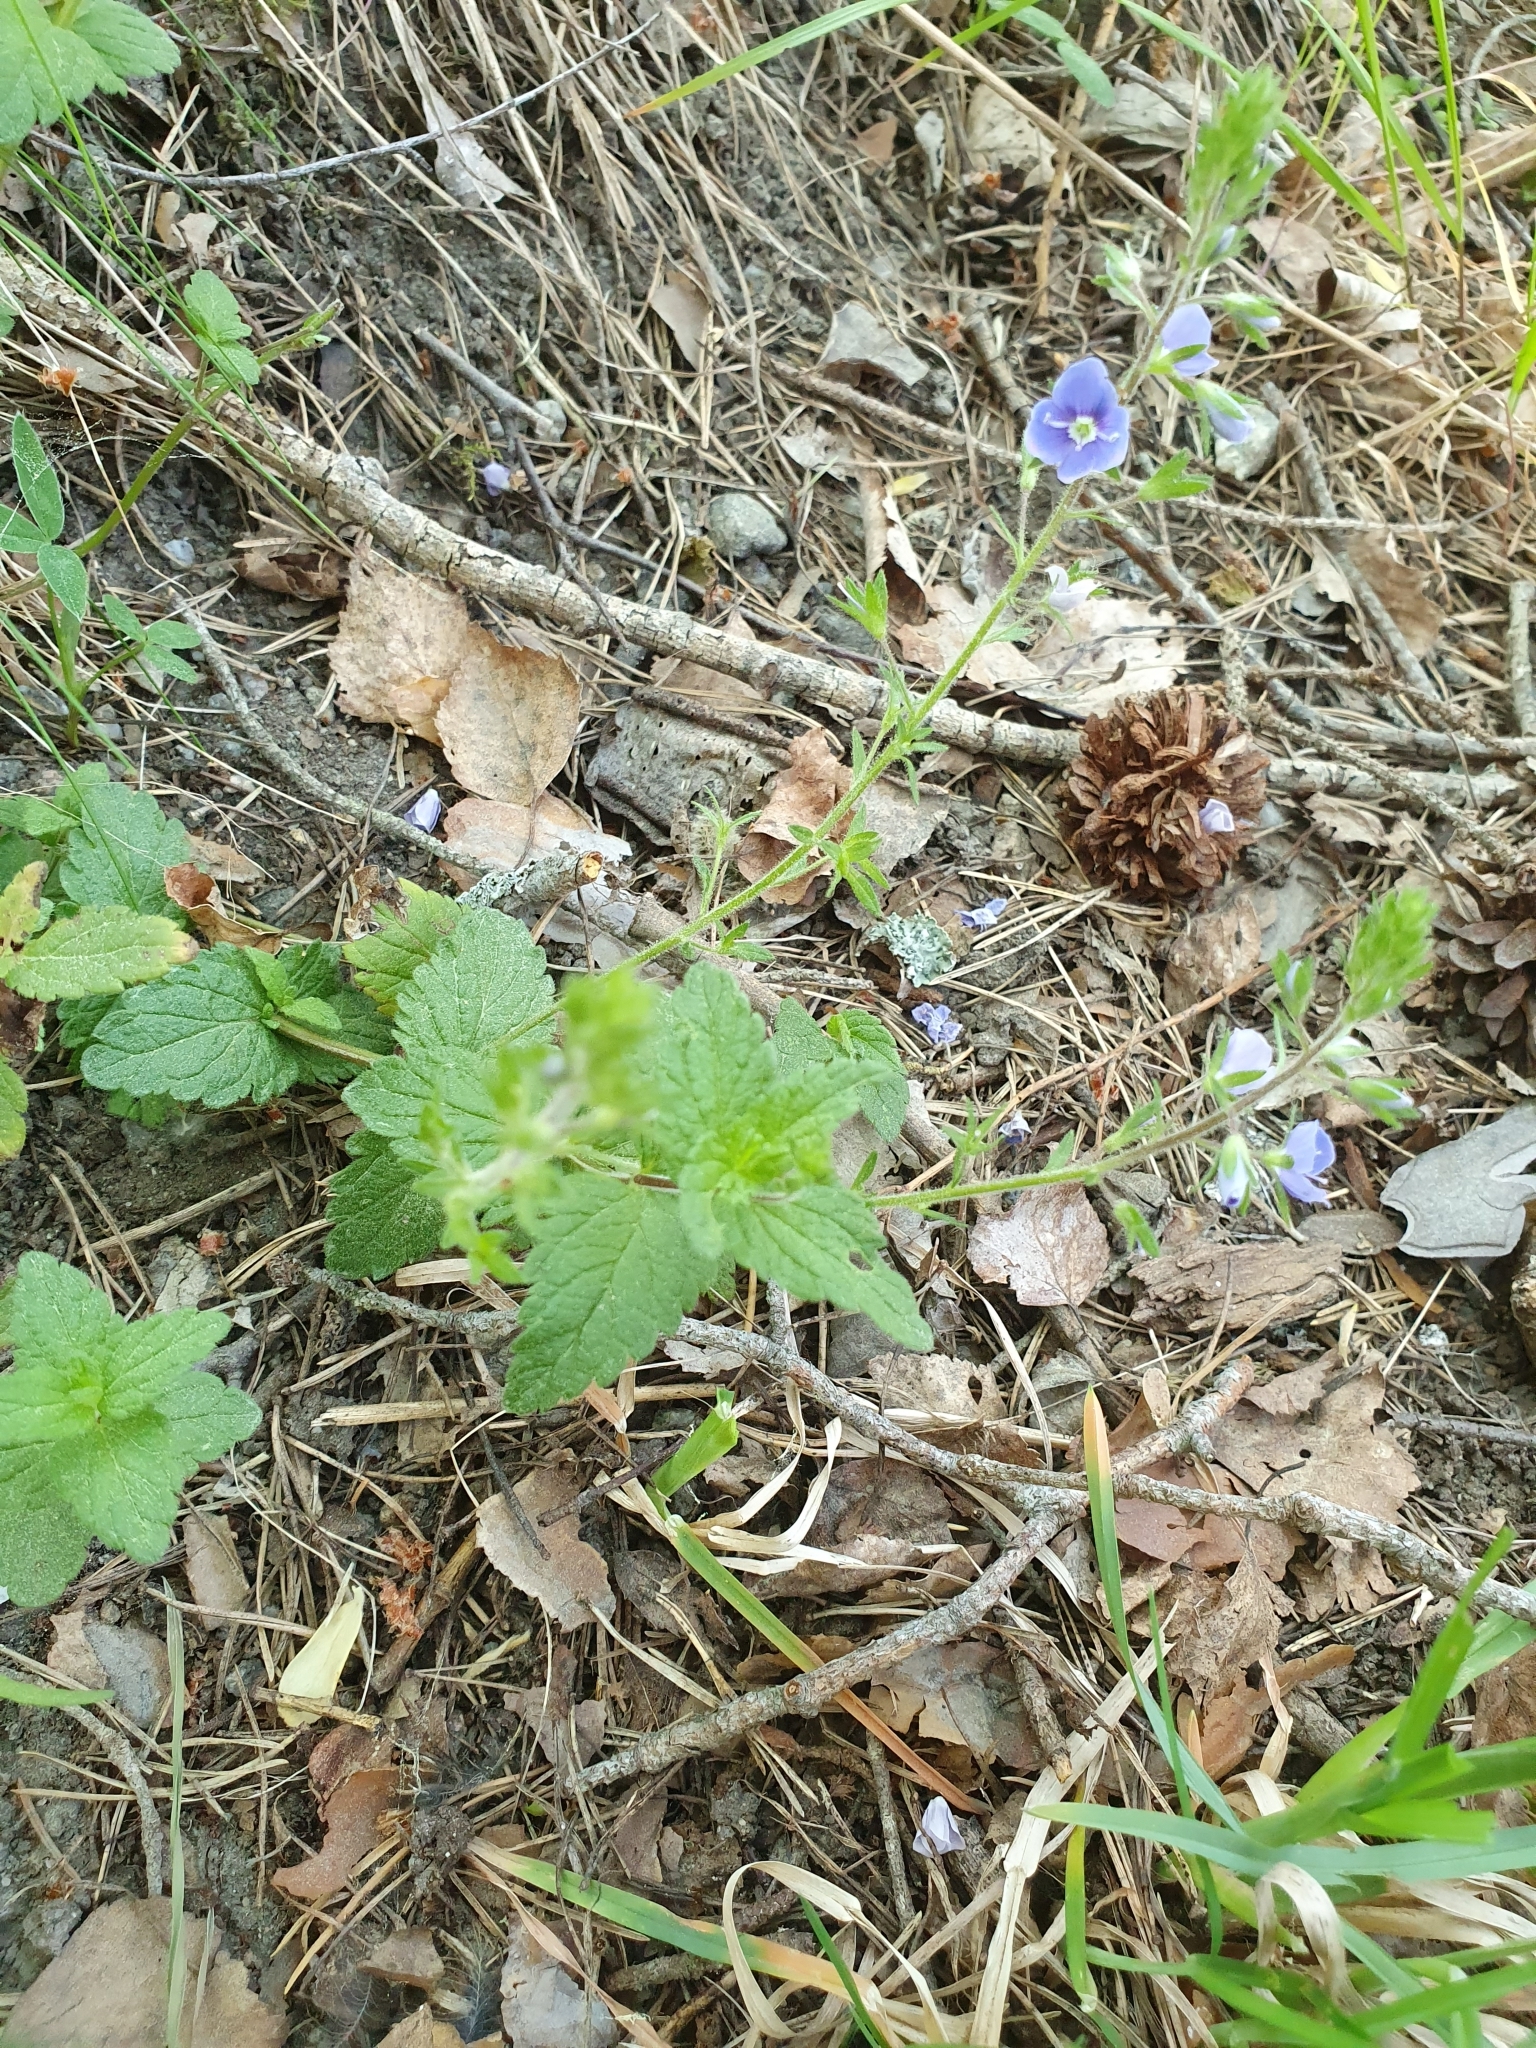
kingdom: Plantae
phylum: Tracheophyta
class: Magnoliopsida
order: Lamiales
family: Plantaginaceae
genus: Veronica
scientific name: Veronica chamaedrys
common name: Germander speedwell
